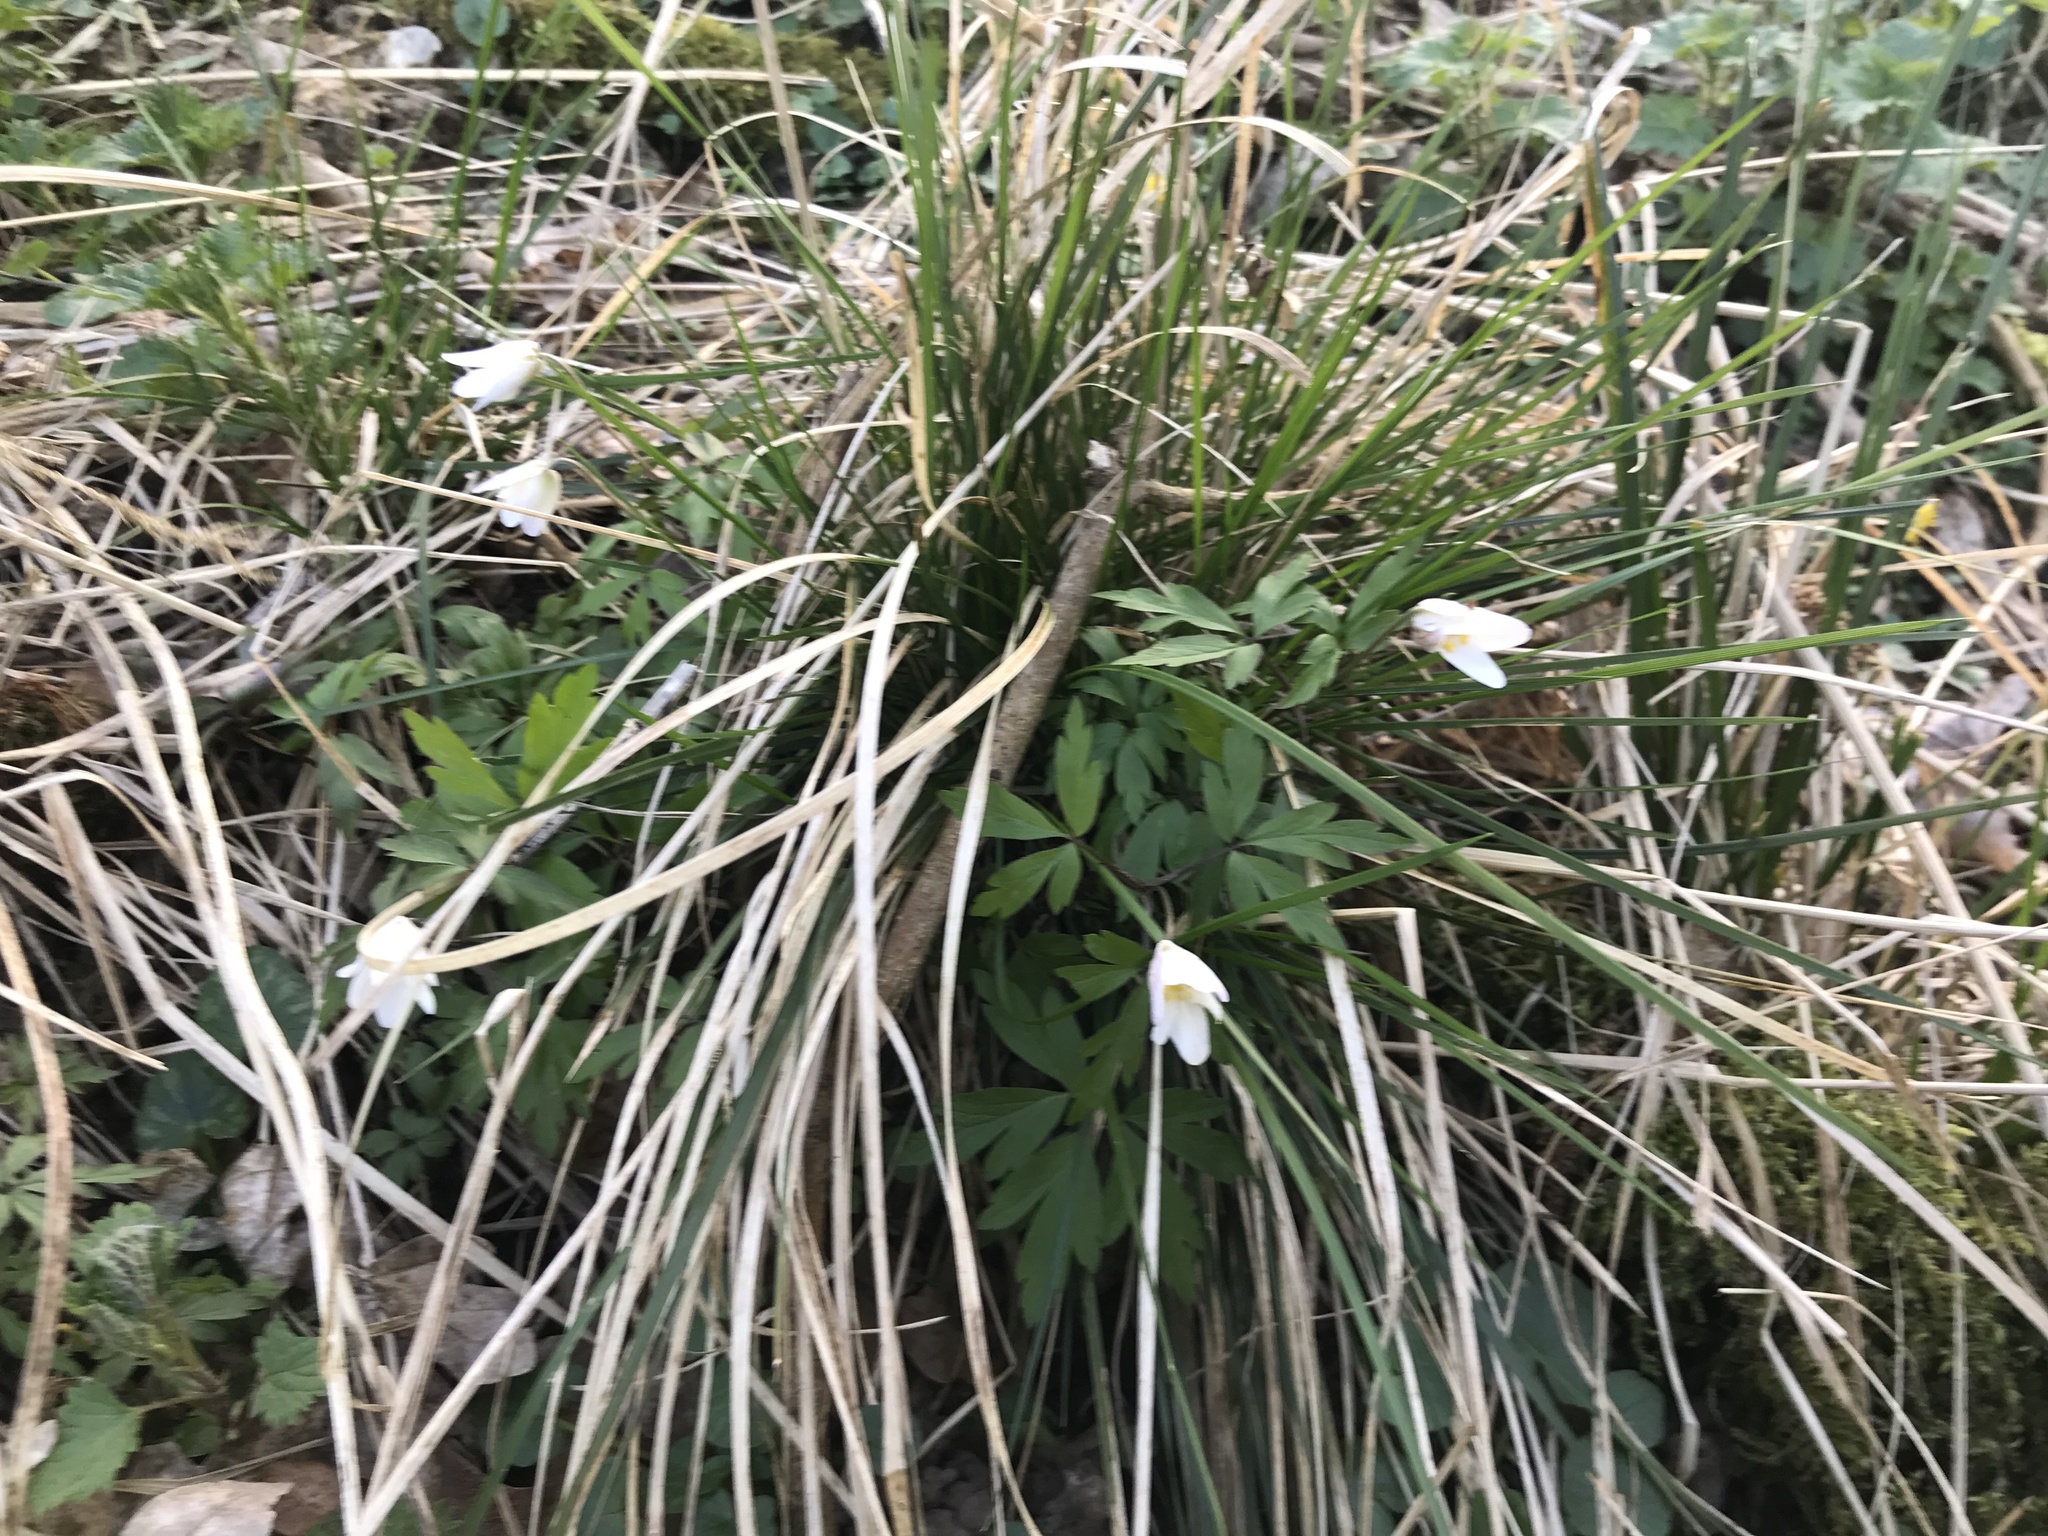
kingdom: Plantae
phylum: Tracheophyta
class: Magnoliopsida
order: Ranunculales
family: Ranunculaceae
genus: Anemone
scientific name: Anemone nemorosa
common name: Wood anemone
